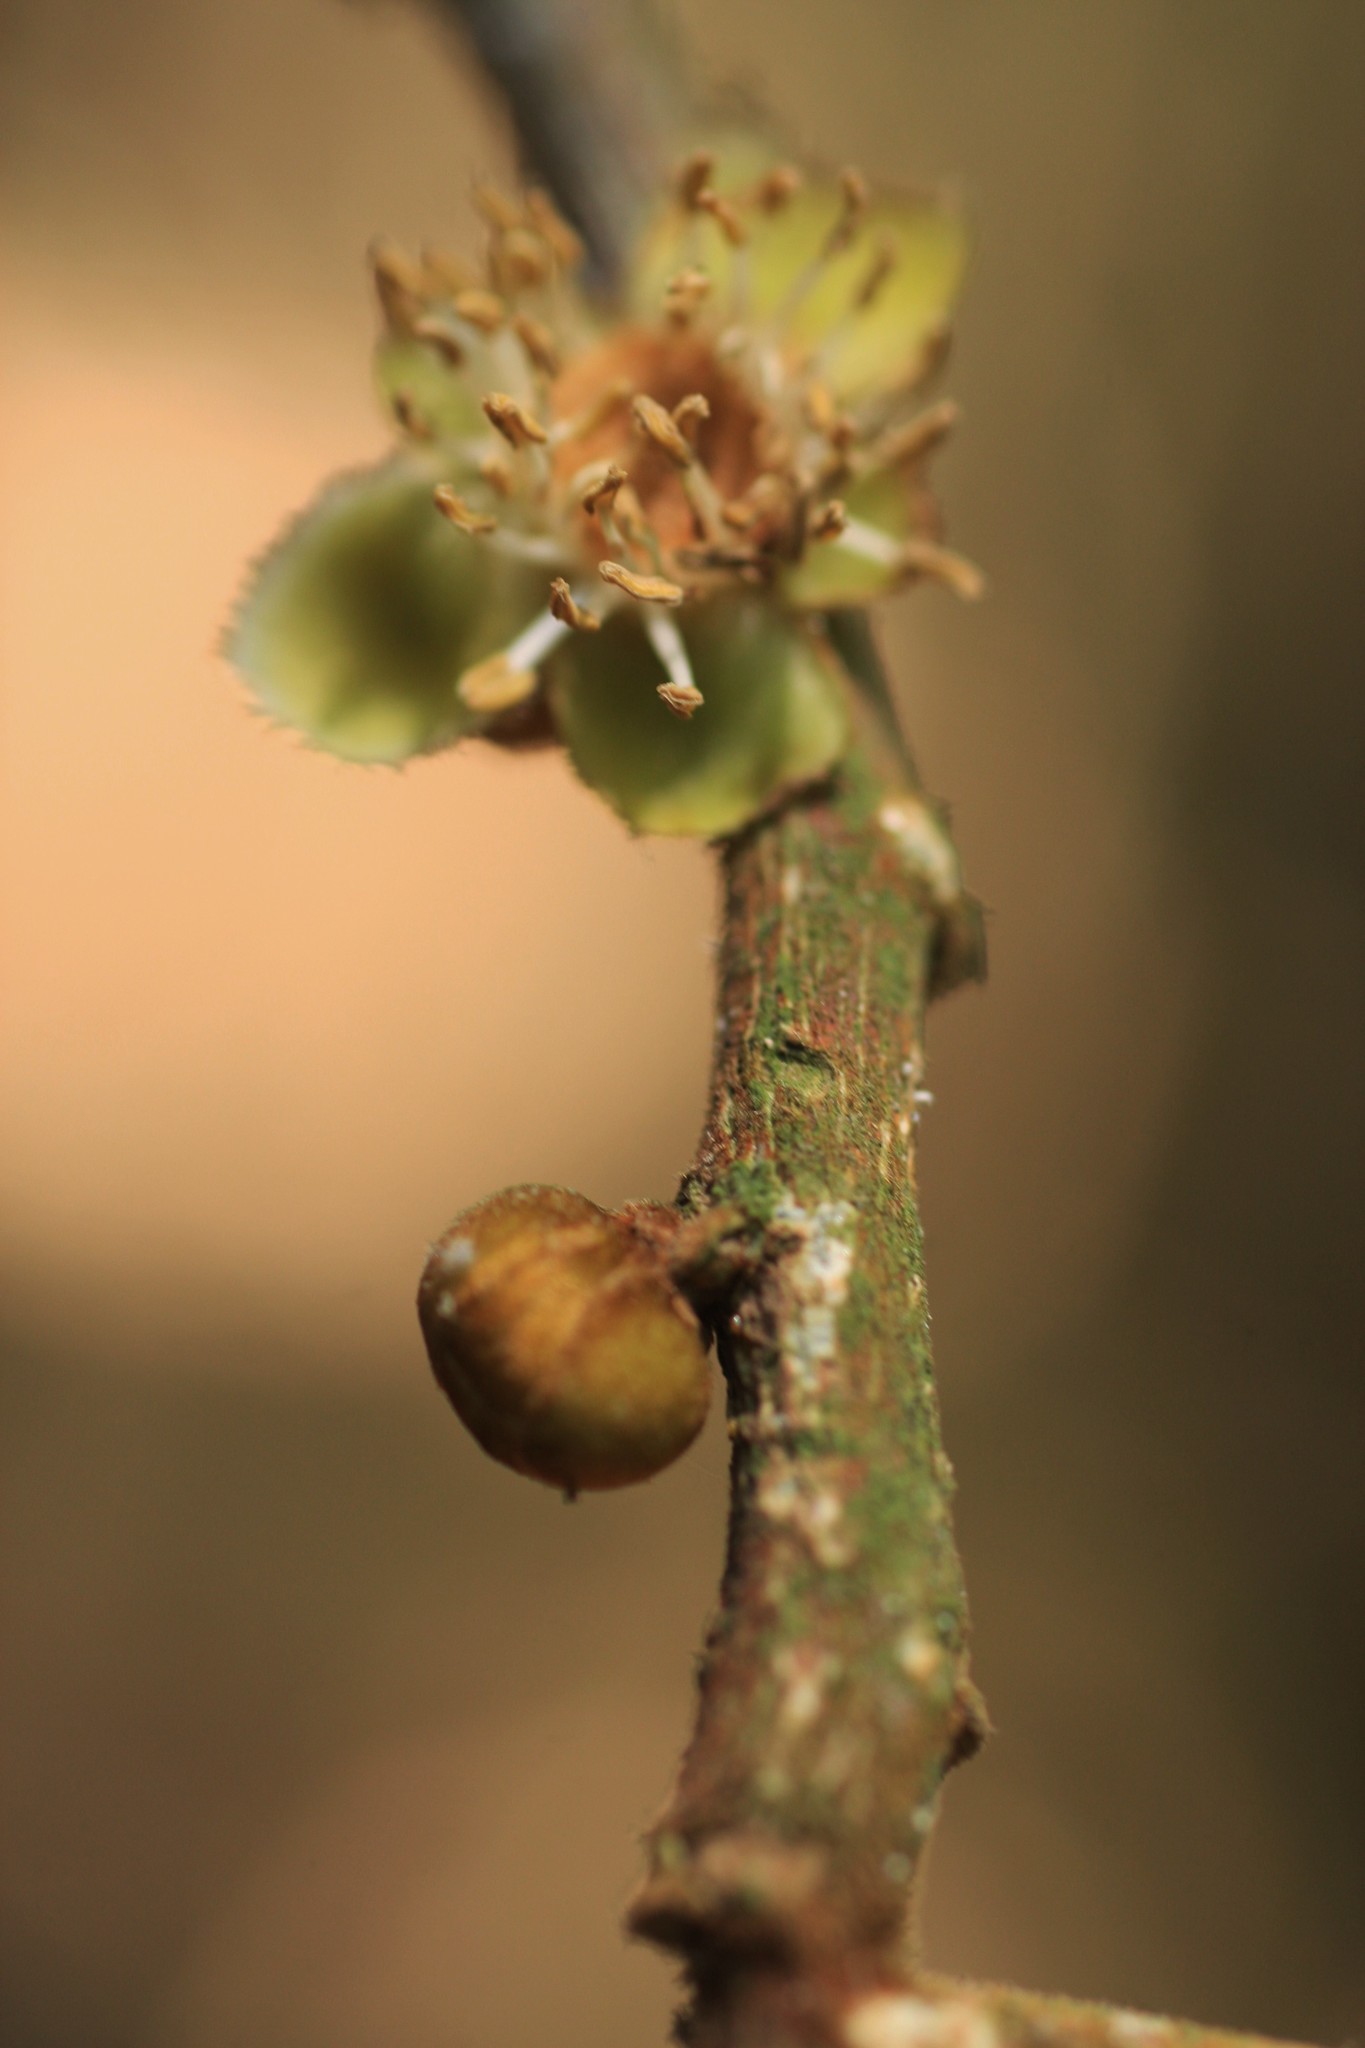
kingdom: Plantae
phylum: Tracheophyta
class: Magnoliopsida
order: Malpighiales
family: Putranjivaceae
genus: Drypetes
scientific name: Drypetes oblongifolia
